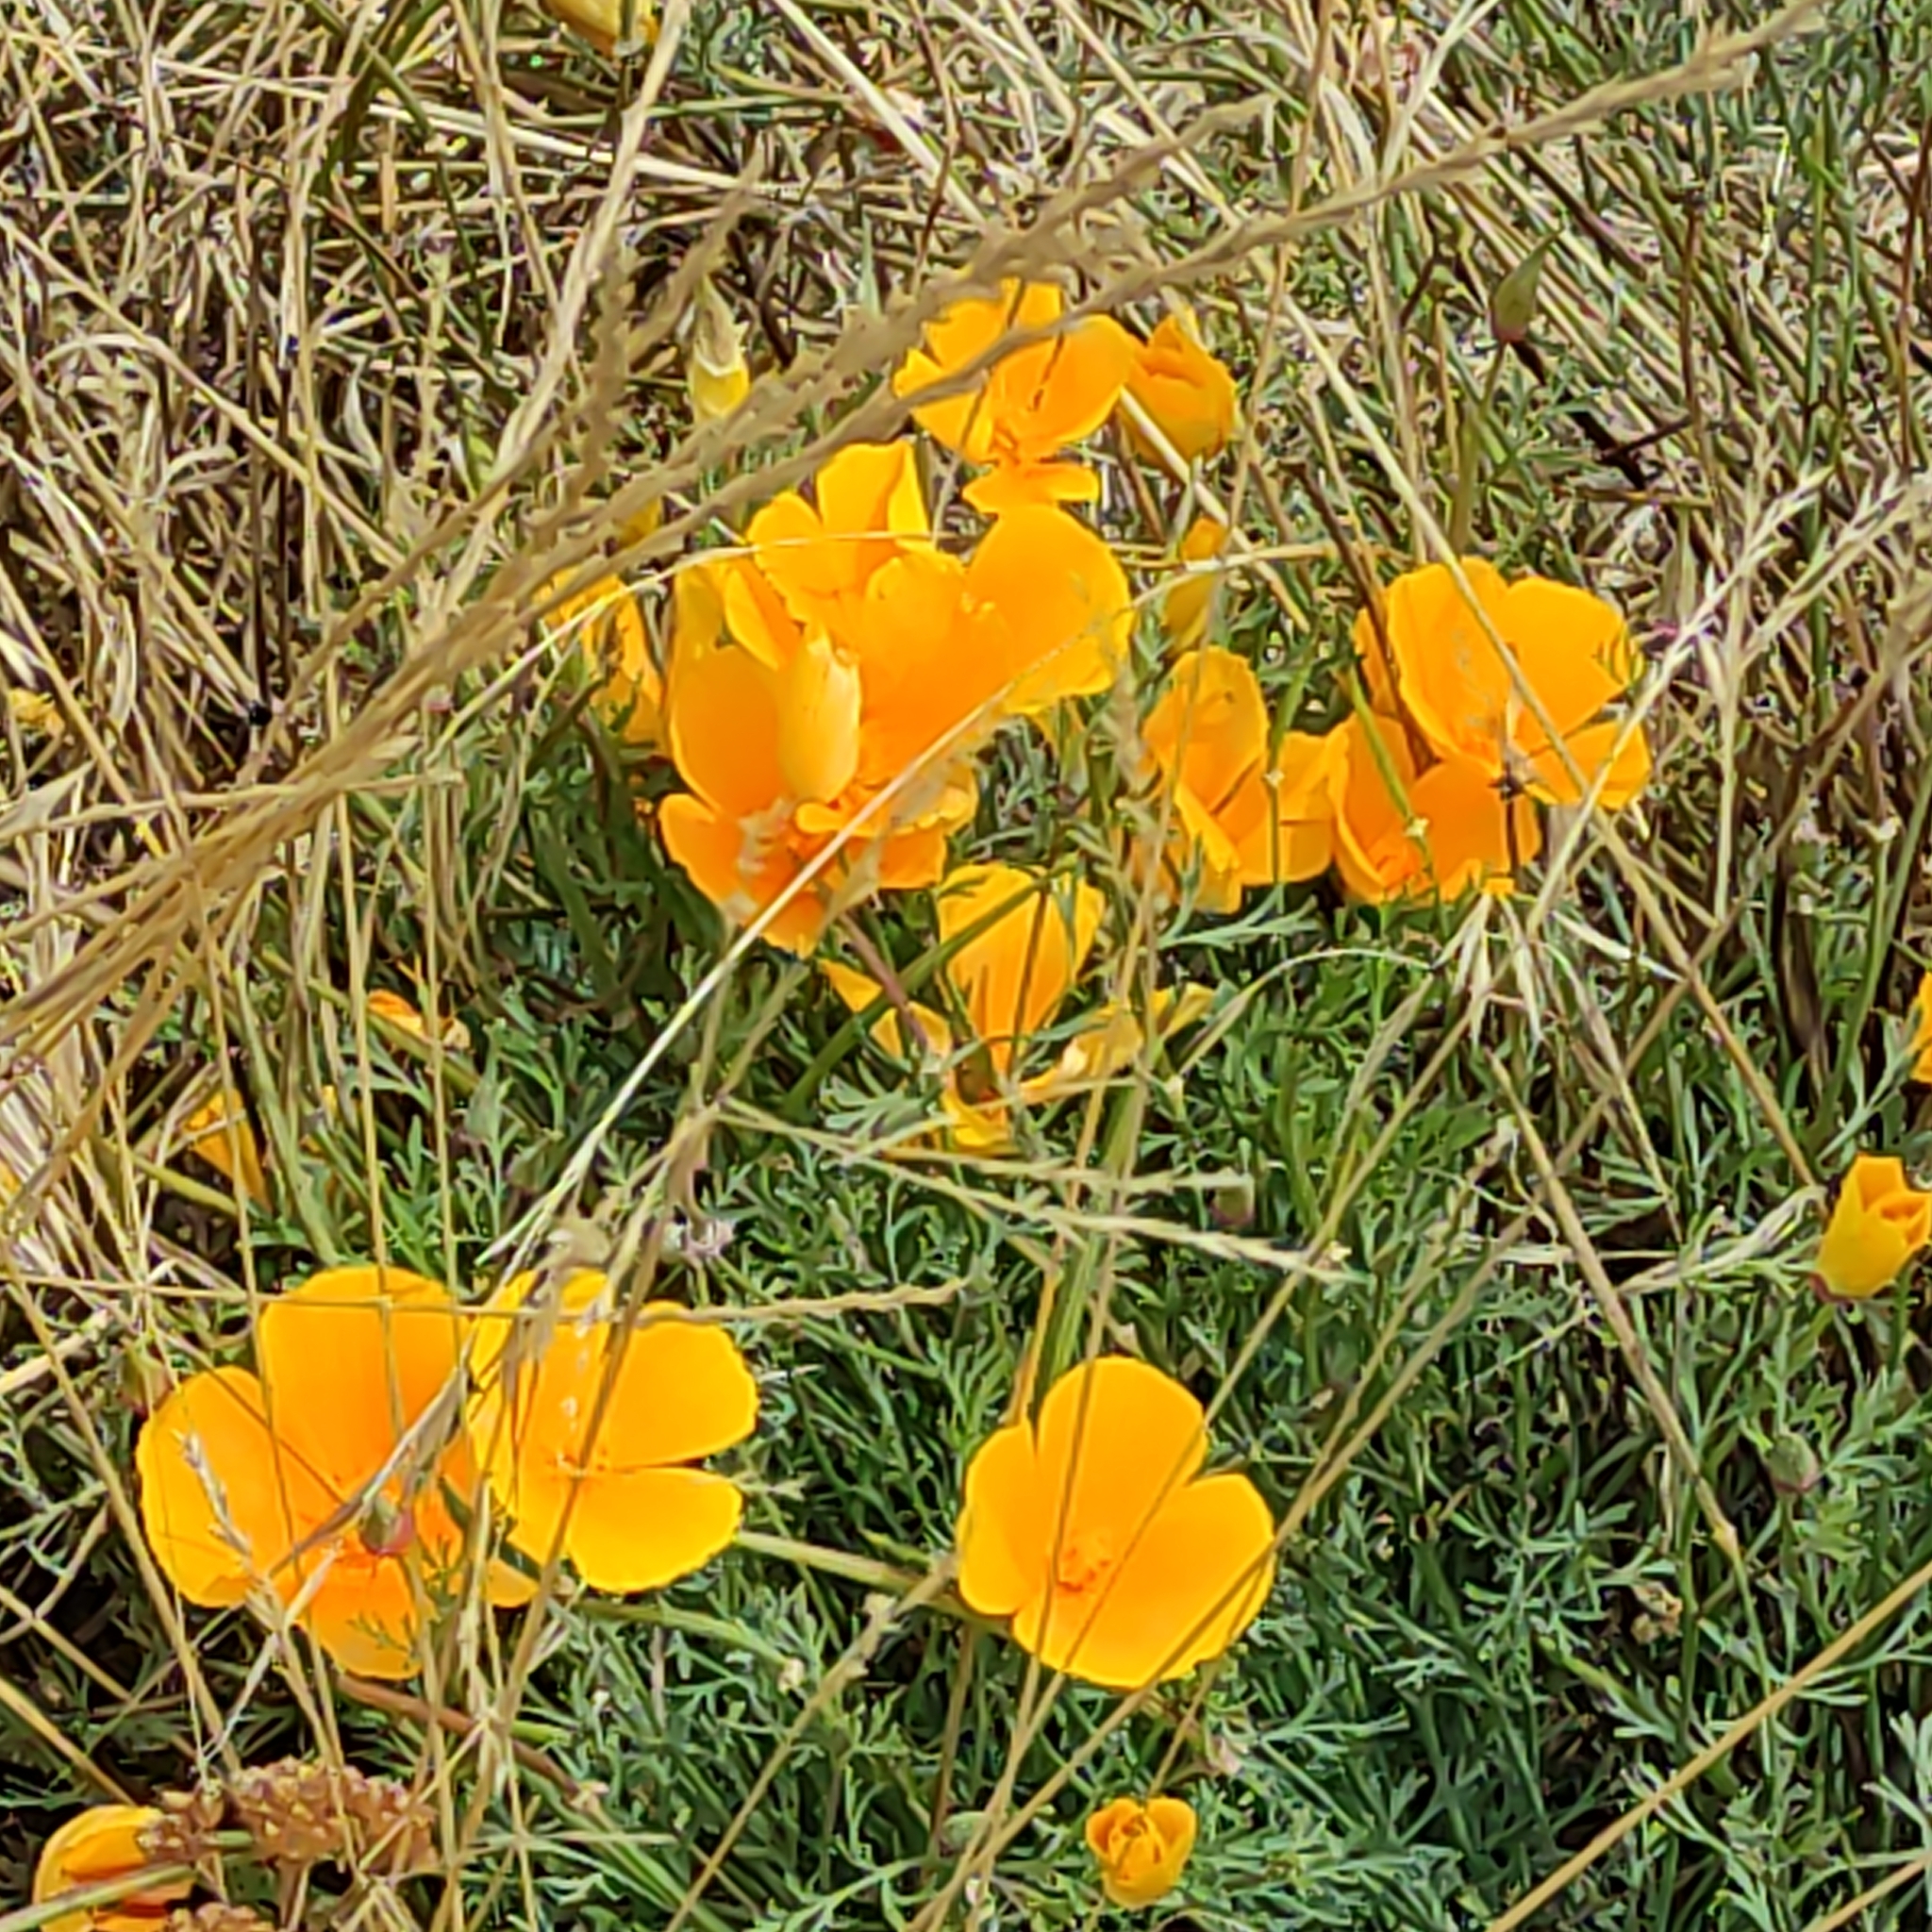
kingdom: Plantae
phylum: Tracheophyta
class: Magnoliopsida
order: Ranunculales
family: Papaveraceae
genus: Eschscholzia
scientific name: Eschscholzia californica
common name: California poppy
